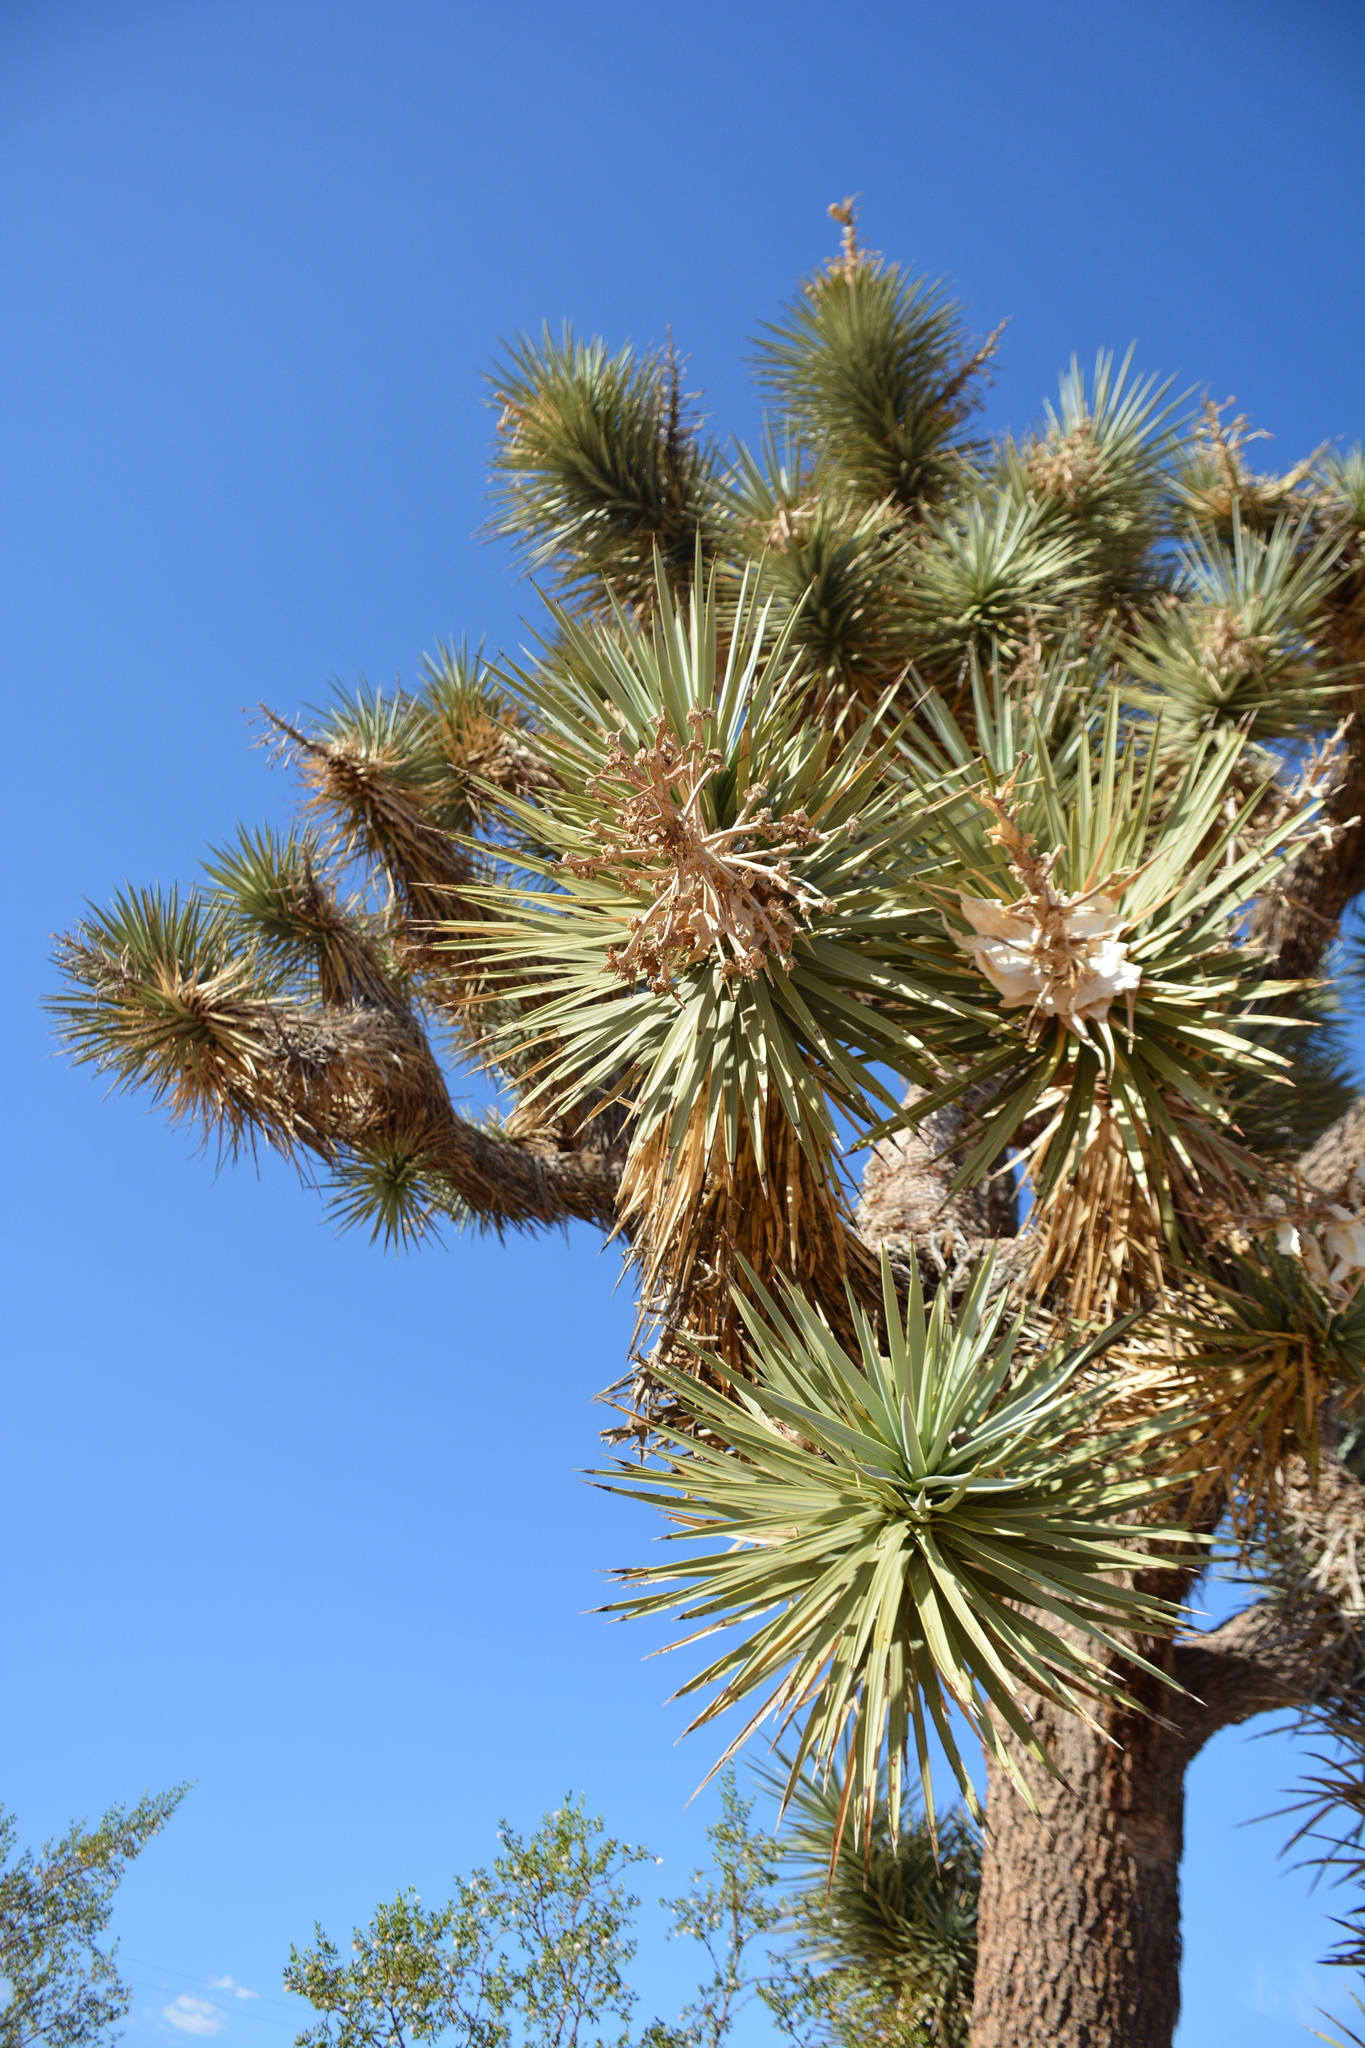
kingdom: Plantae
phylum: Tracheophyta
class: Liliopsida
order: Asparagales
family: Asparagaceae
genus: Yucca
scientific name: Yucca brevifolia
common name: Joshua tree
